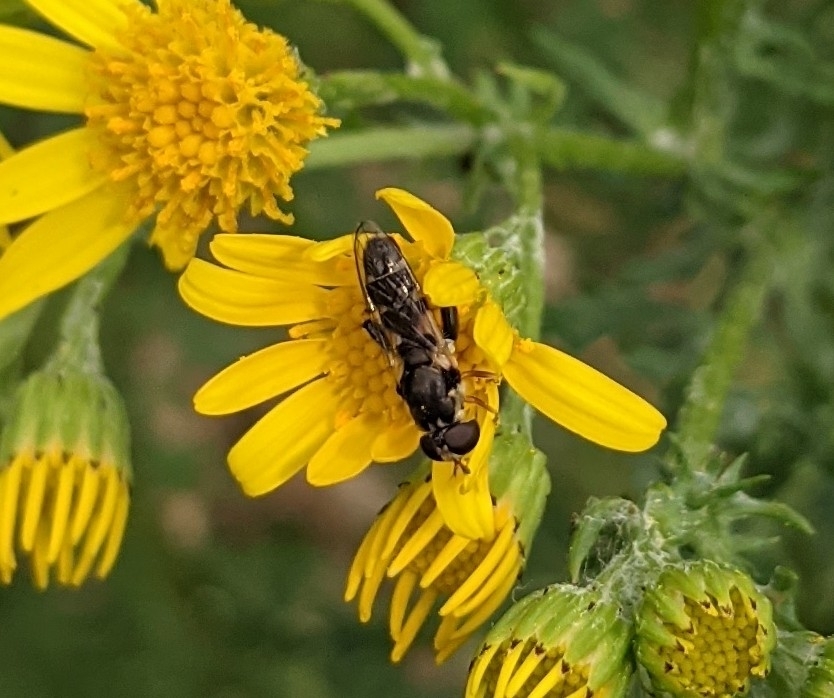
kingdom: Animalia
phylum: Arthropoda
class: Insecta
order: Diptera
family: Syrphidae
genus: Syritta
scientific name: Syritta pipiens
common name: Hover fly
